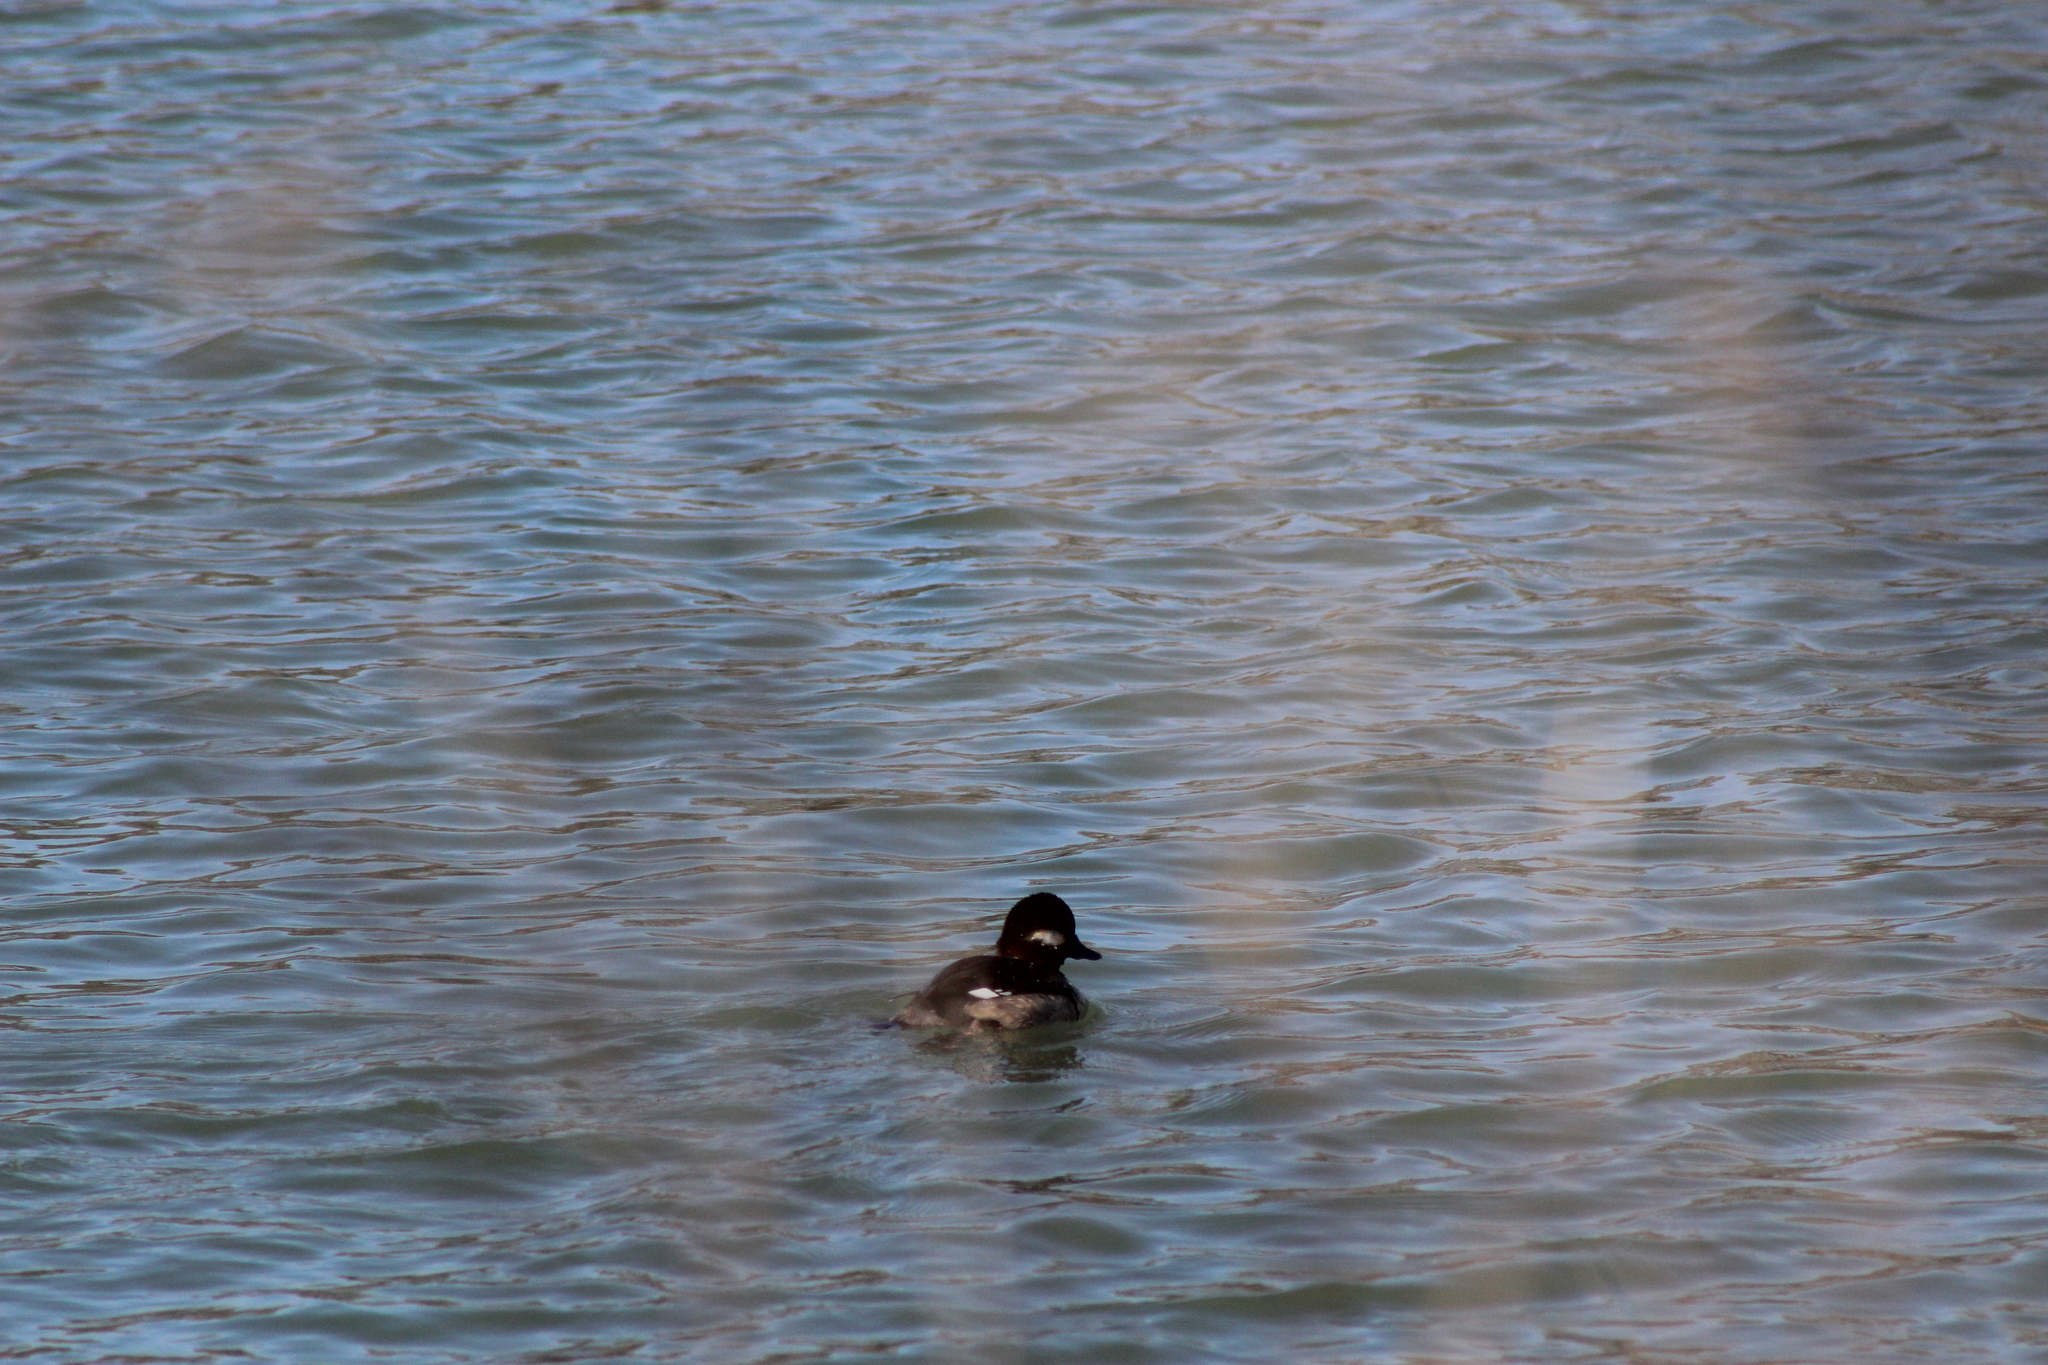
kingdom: Animalia
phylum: Chordata
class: Aves
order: Anseriformes
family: Anatidae
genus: Bucephala
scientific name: Bucephala albeola
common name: Bufflehead
